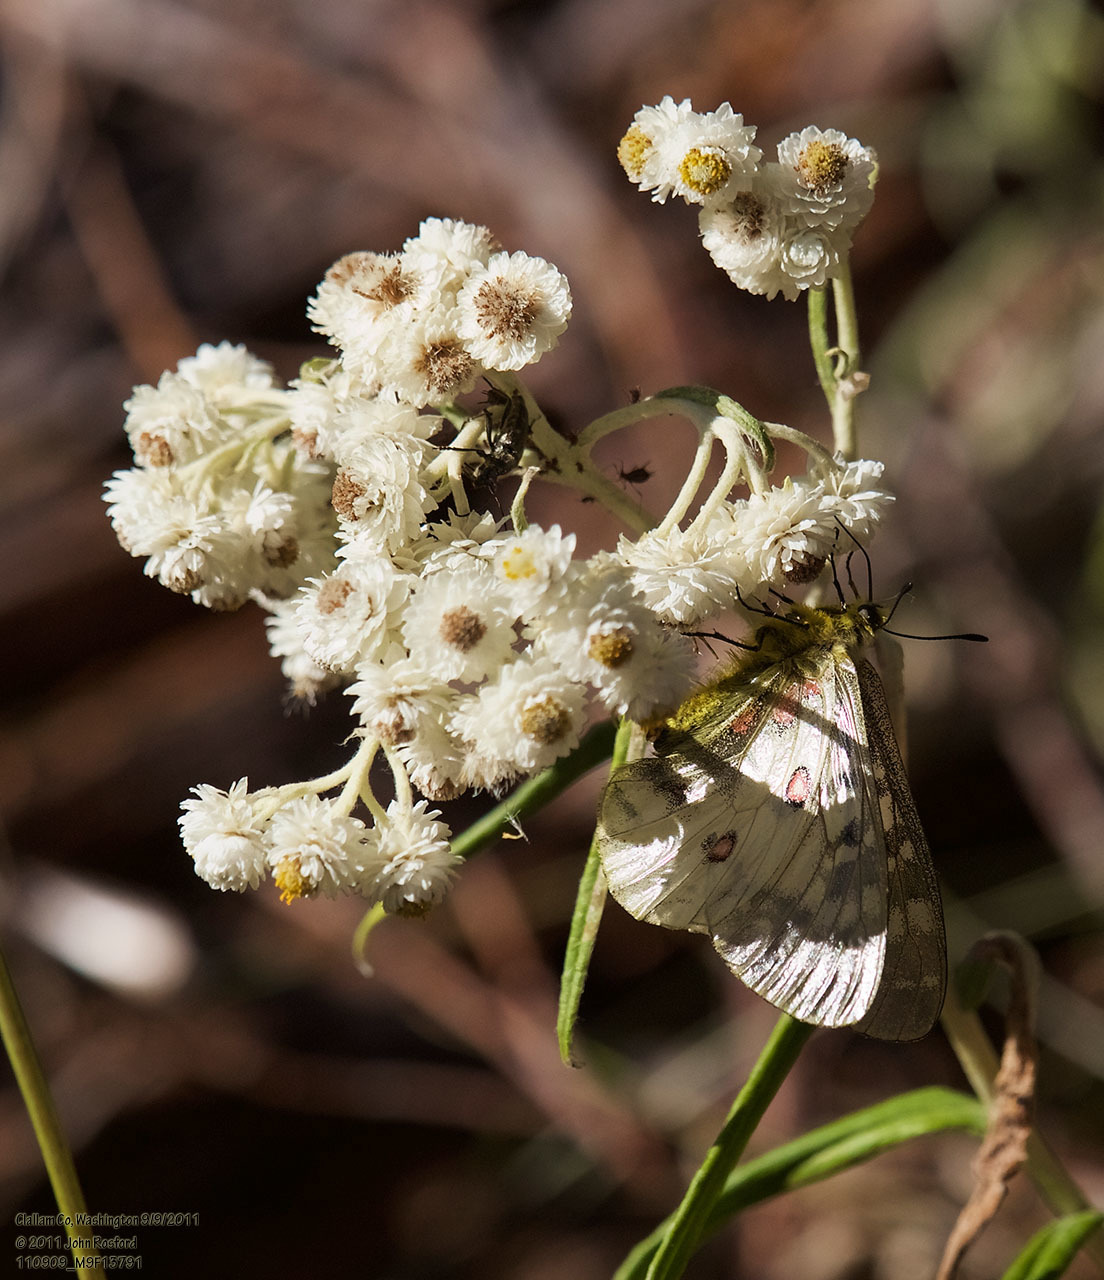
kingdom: Plantae
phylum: Tracheophyta
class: Magnoliopsida
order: Asterales
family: Asteraceae
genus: Anaphalis
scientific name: Anaphalis margaritacea
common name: Pearly everlasting
